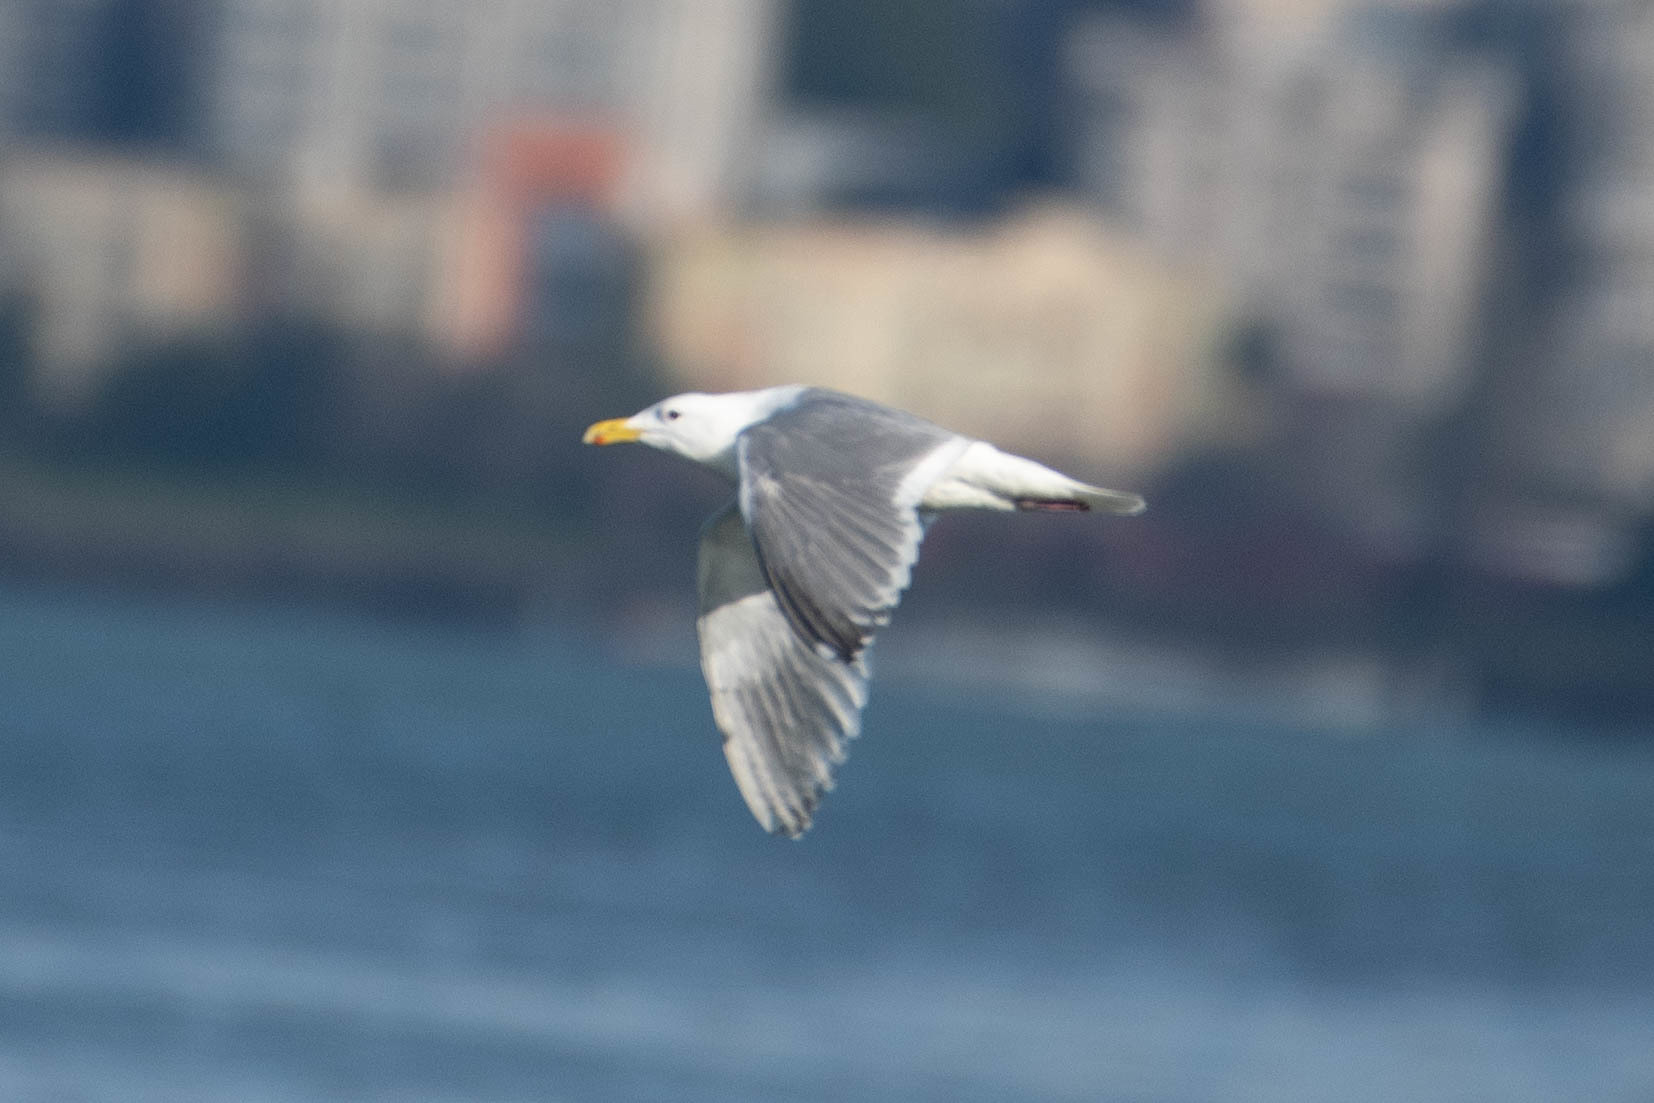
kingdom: Animalia
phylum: Chordata
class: Aves
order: Charadriiformes
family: Laridae
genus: Larus
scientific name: Larus
